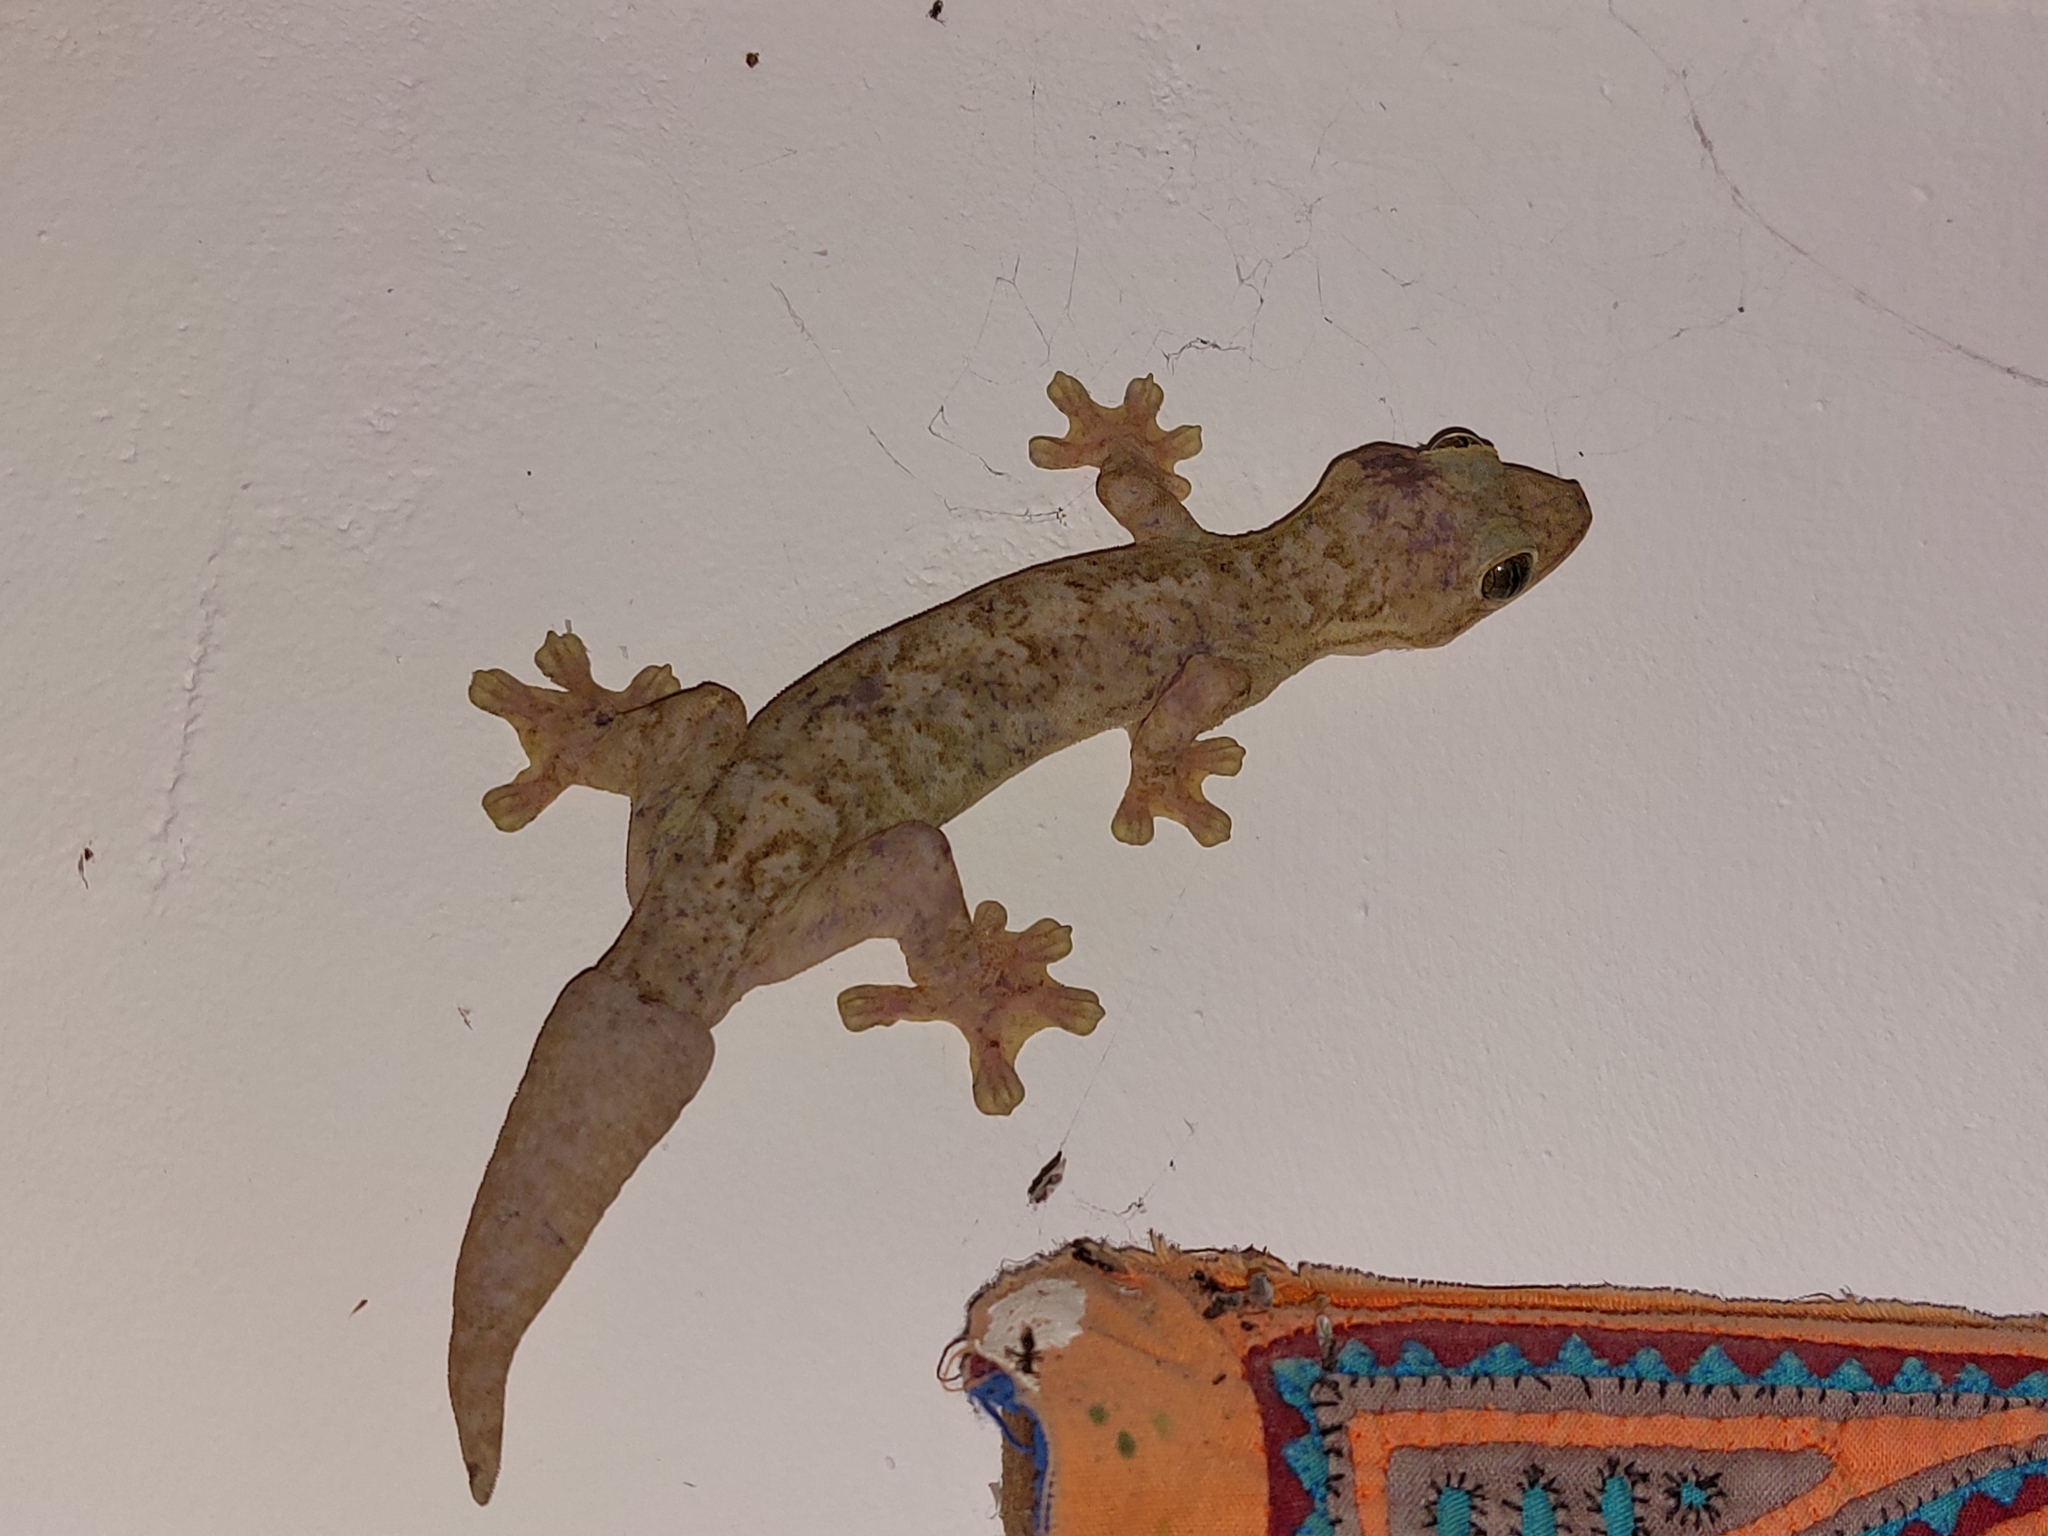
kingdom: Animalia
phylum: Chordata
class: Squamata
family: Phyllodactylidae
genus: Thecadactylus
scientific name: Thecadactylus rapicauda
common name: Turnip-tailed gecko
